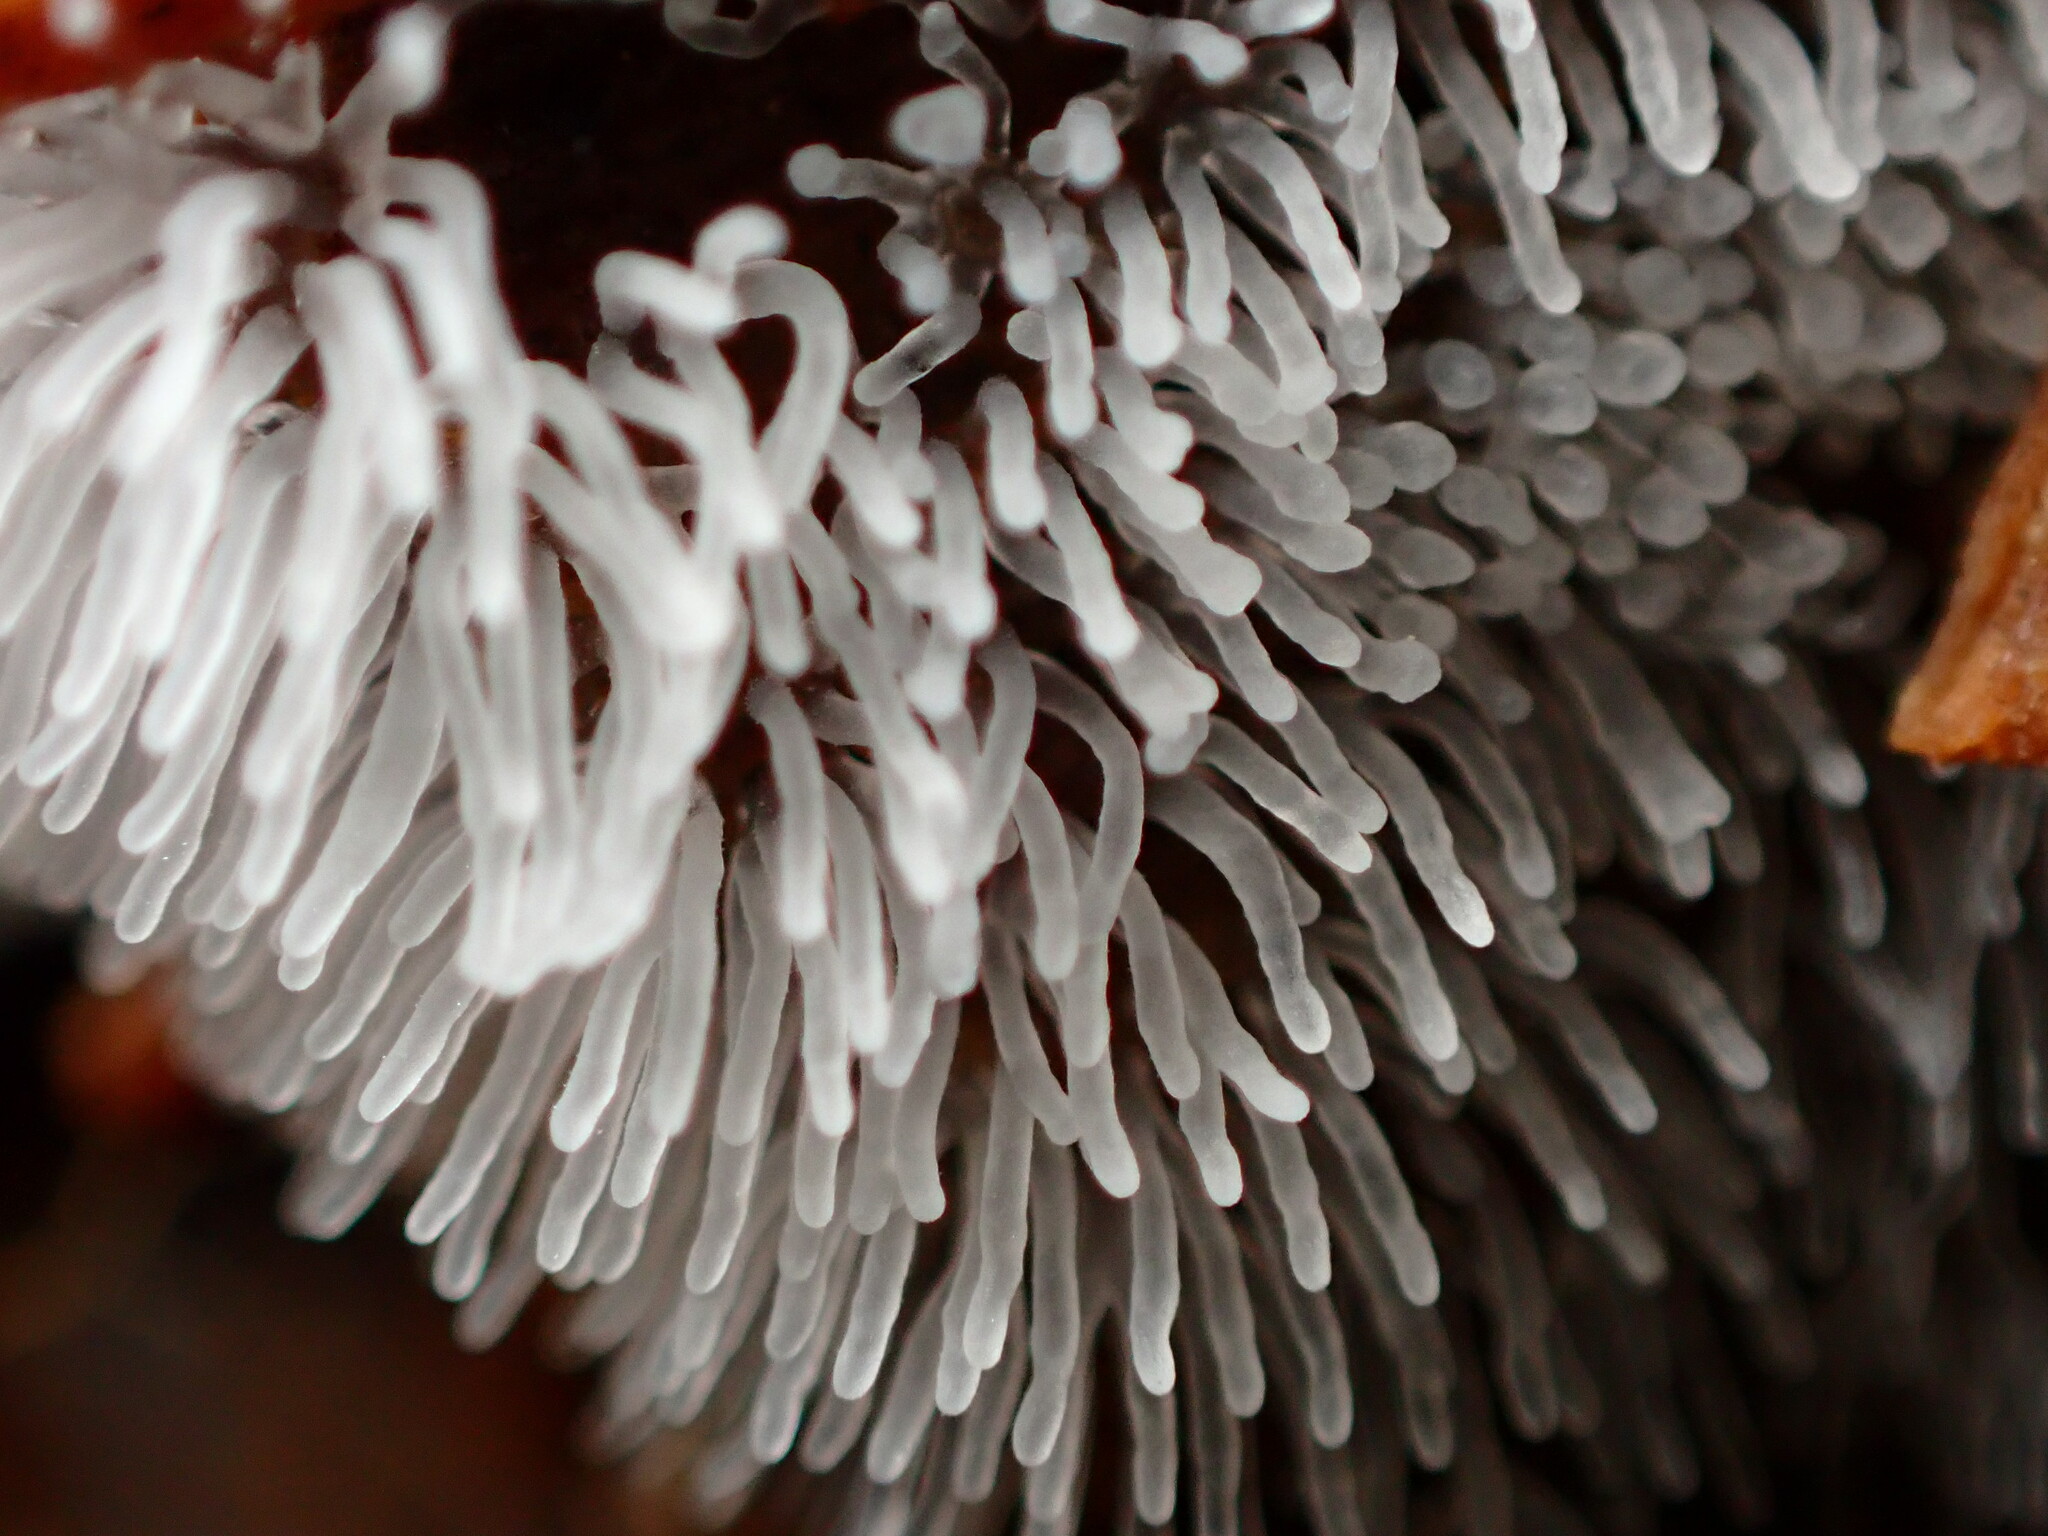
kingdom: Protozoa
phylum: Mycetozoa
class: Protosteliomycetes
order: Ceratiomyxales
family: Ceratiomyxaceae
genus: Ceratiomyxa
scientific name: Ceratiomyxa fruticulosa
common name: Honeycomb coral slime mold
